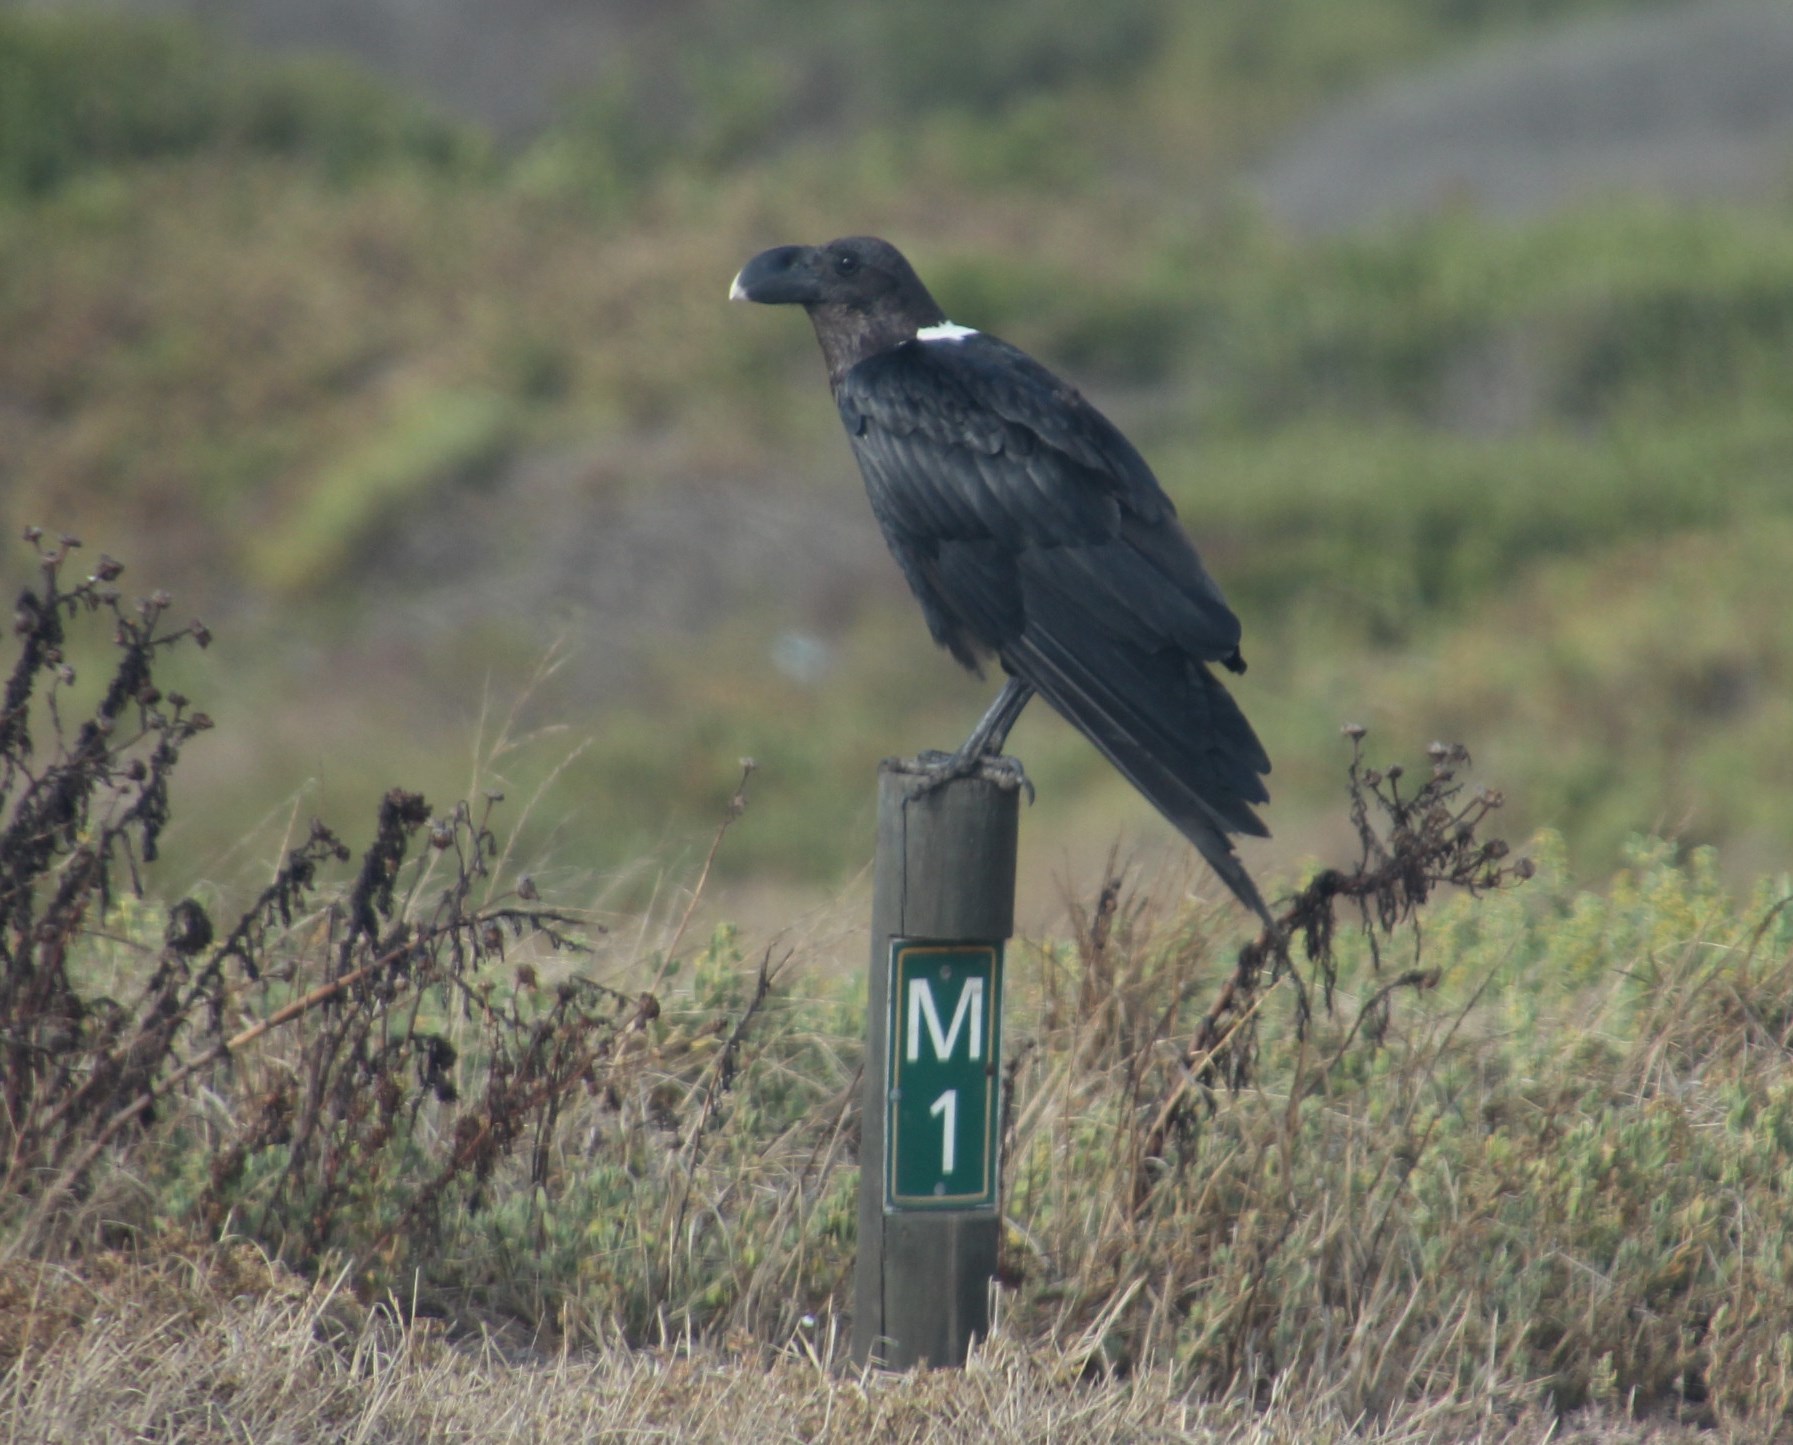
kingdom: Animalia
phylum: Chordata
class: Aves
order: Passeriformes
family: Corvidae
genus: Corvus
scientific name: Corvus albicollis
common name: White-necked raven
